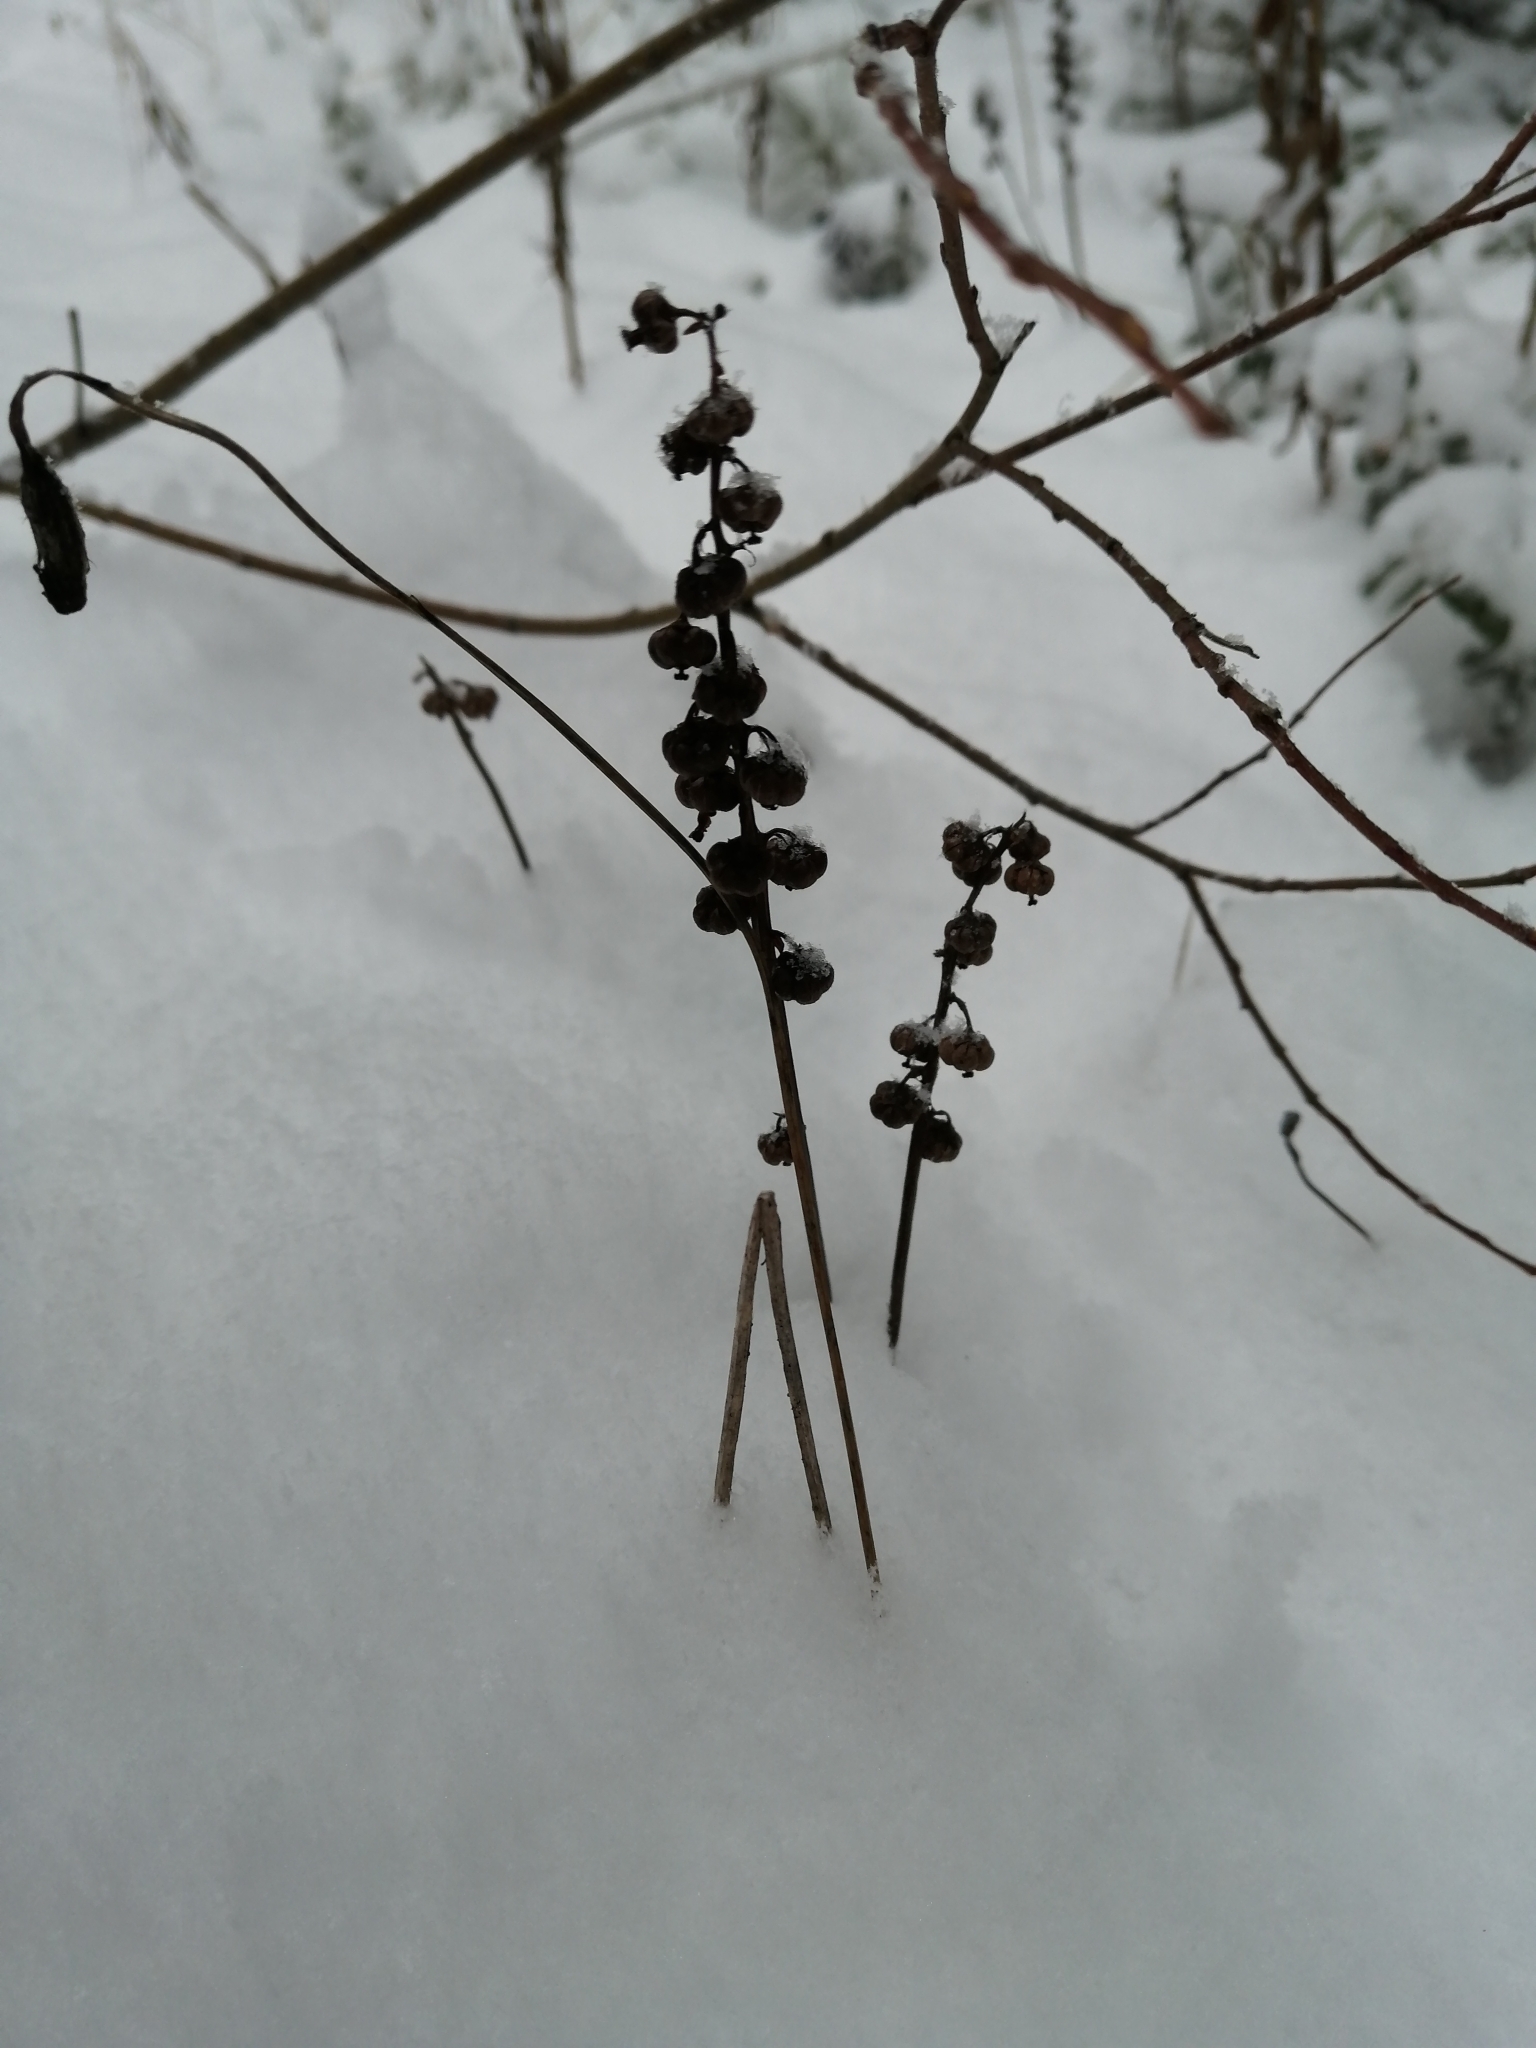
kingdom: Plantae
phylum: Tracheophyta
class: Magnoliopsida
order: Ericales
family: Ericaceae
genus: Pyrola
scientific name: Pyrola minor
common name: Common wintergreen
